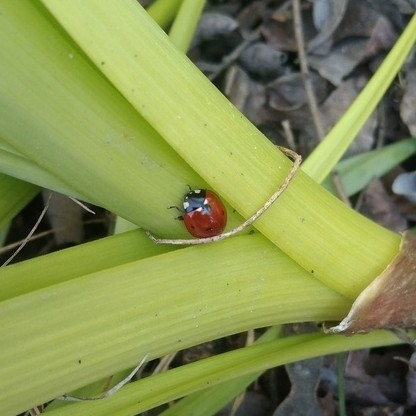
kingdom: Animalia
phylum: Arthropoda
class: Insecta
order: Coleoptera
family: Coccinellidae
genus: Coccinella
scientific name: Coccinella septempunctata
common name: Sevenspotted lady beetle
